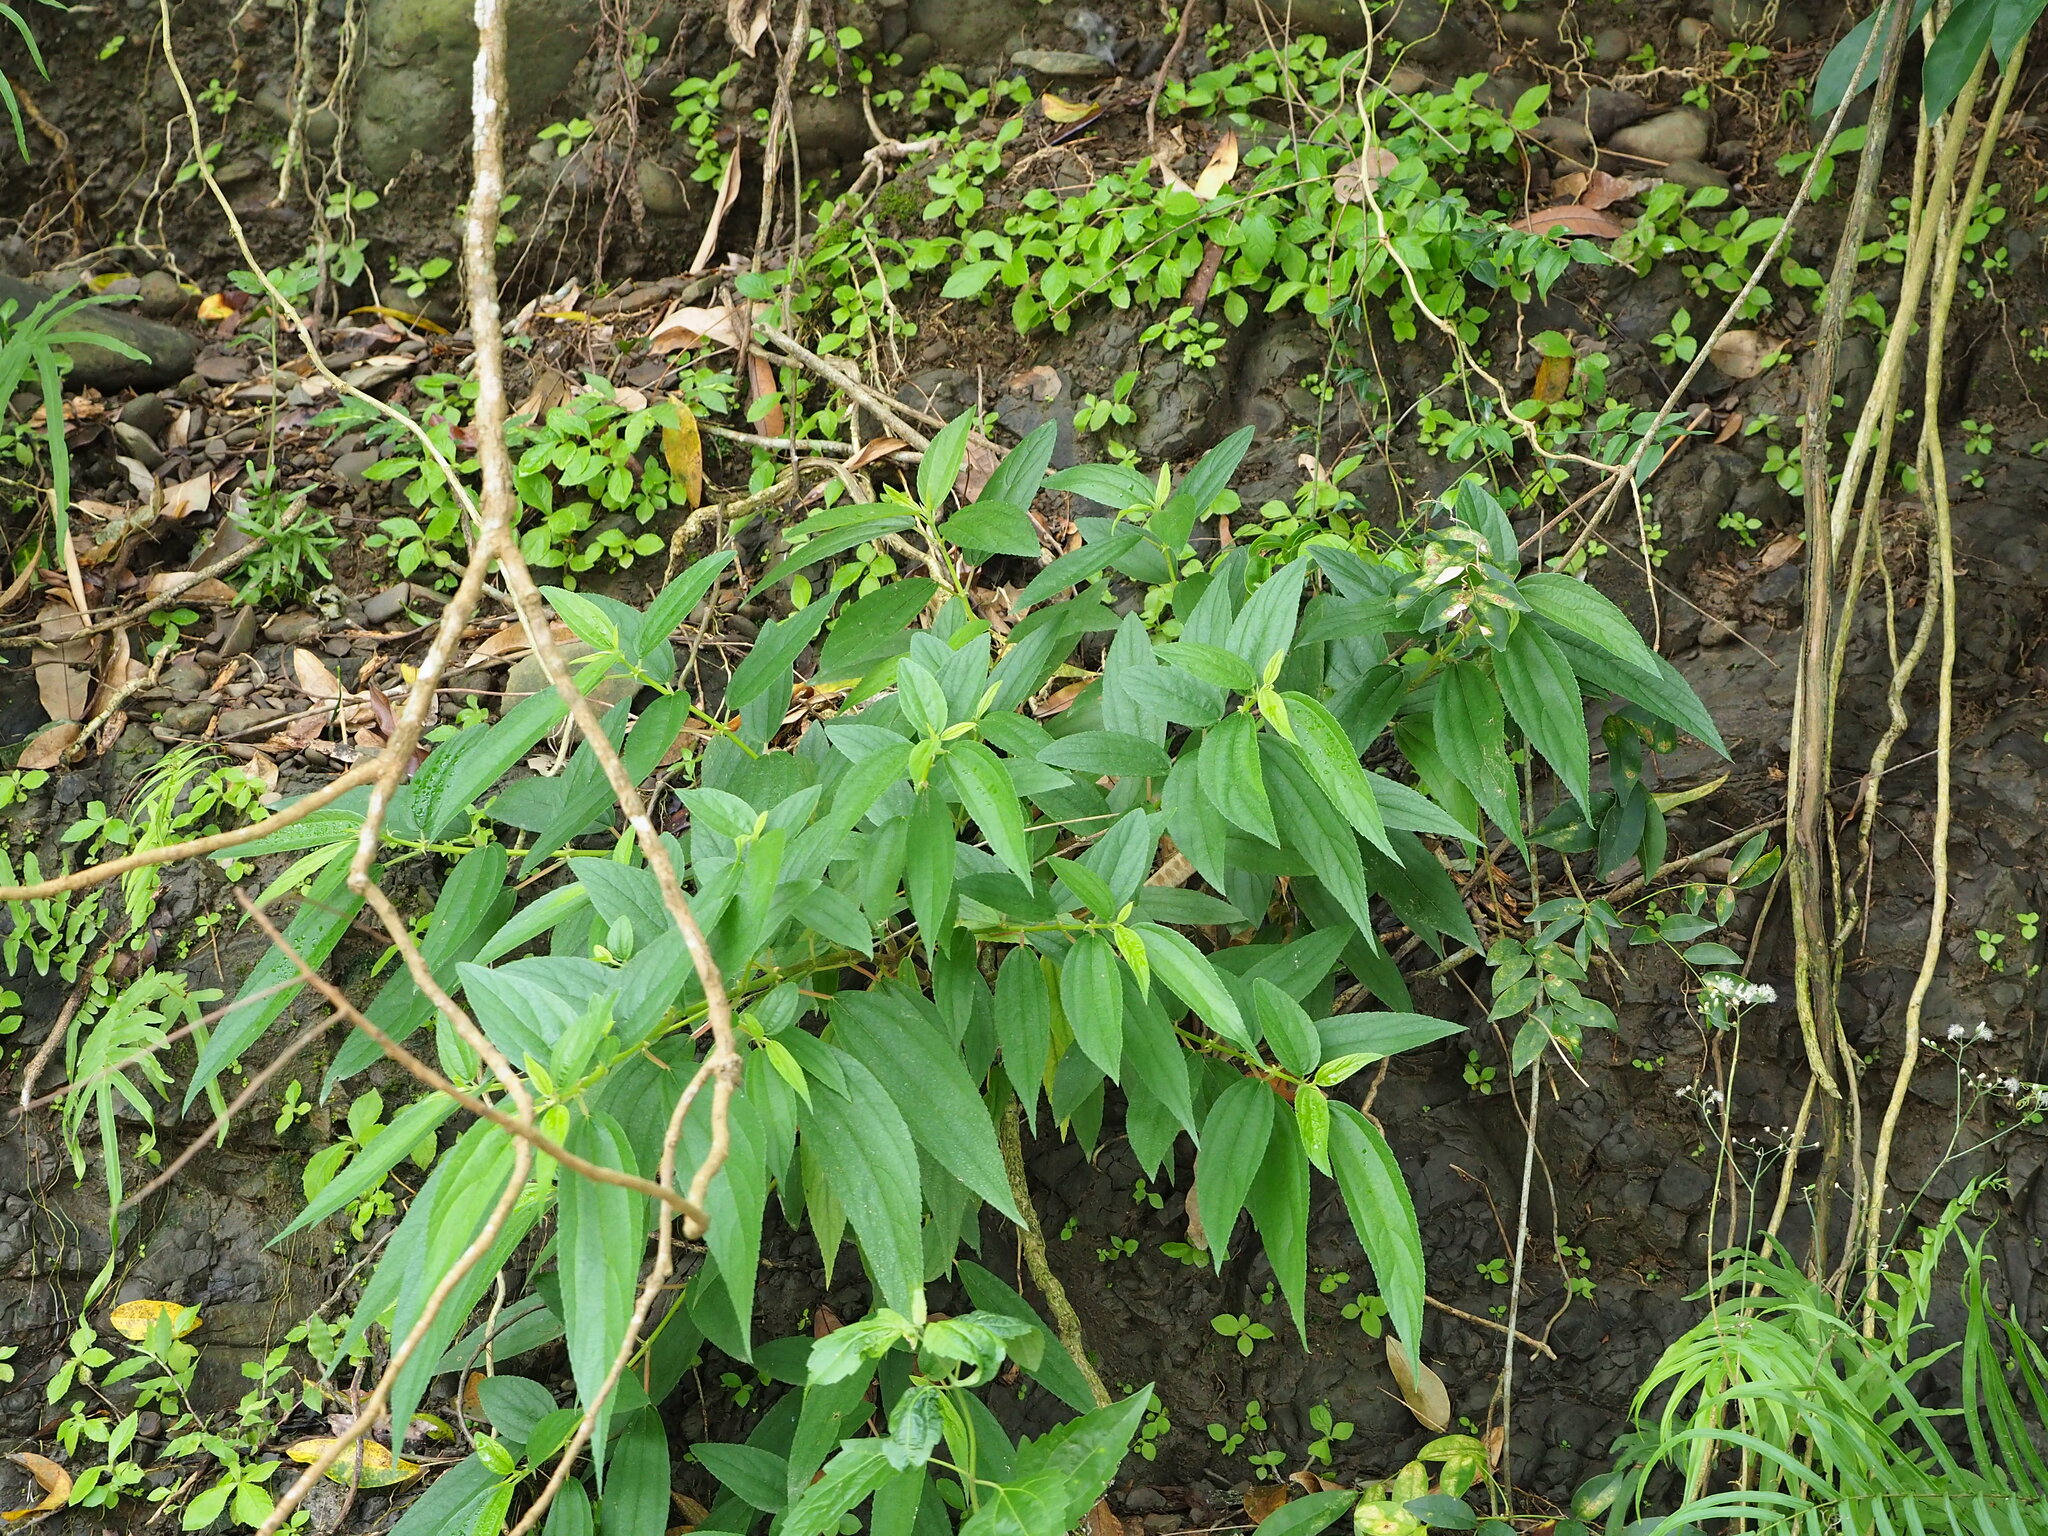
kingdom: Plantae
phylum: Tracheophyta
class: Magnoliopsida
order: Rosales
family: Urticaceae
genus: Boehmeria
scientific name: Boehmeria densiflora
